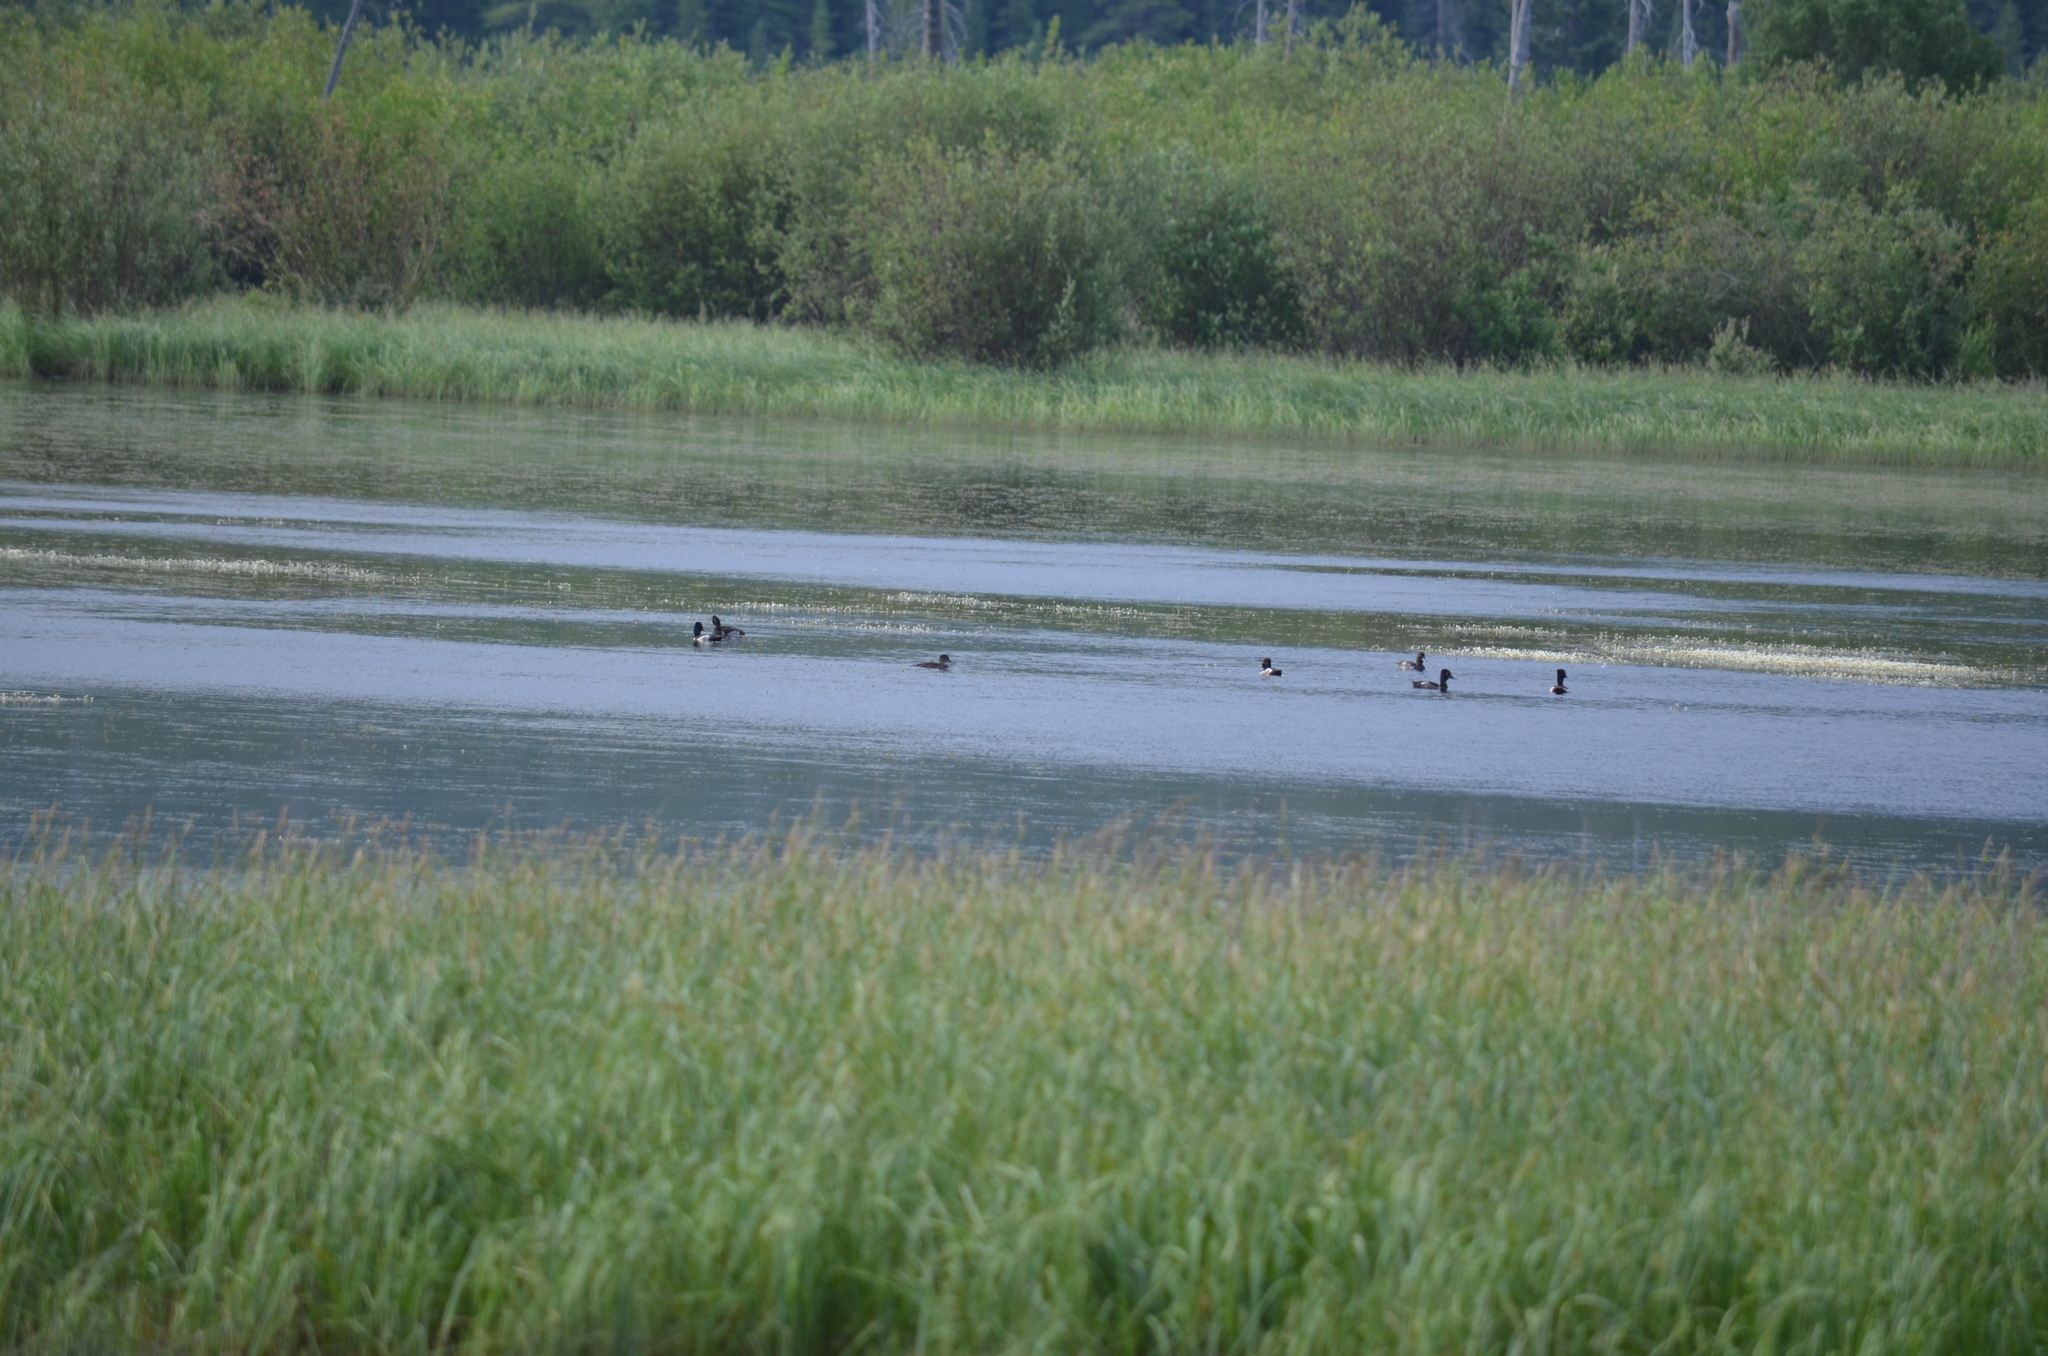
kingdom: Animalia
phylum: Chordata
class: Aves
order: Anseriformes
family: Anatidae
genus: Aythya
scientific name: Aythya collaris
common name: Ring-necked duck
